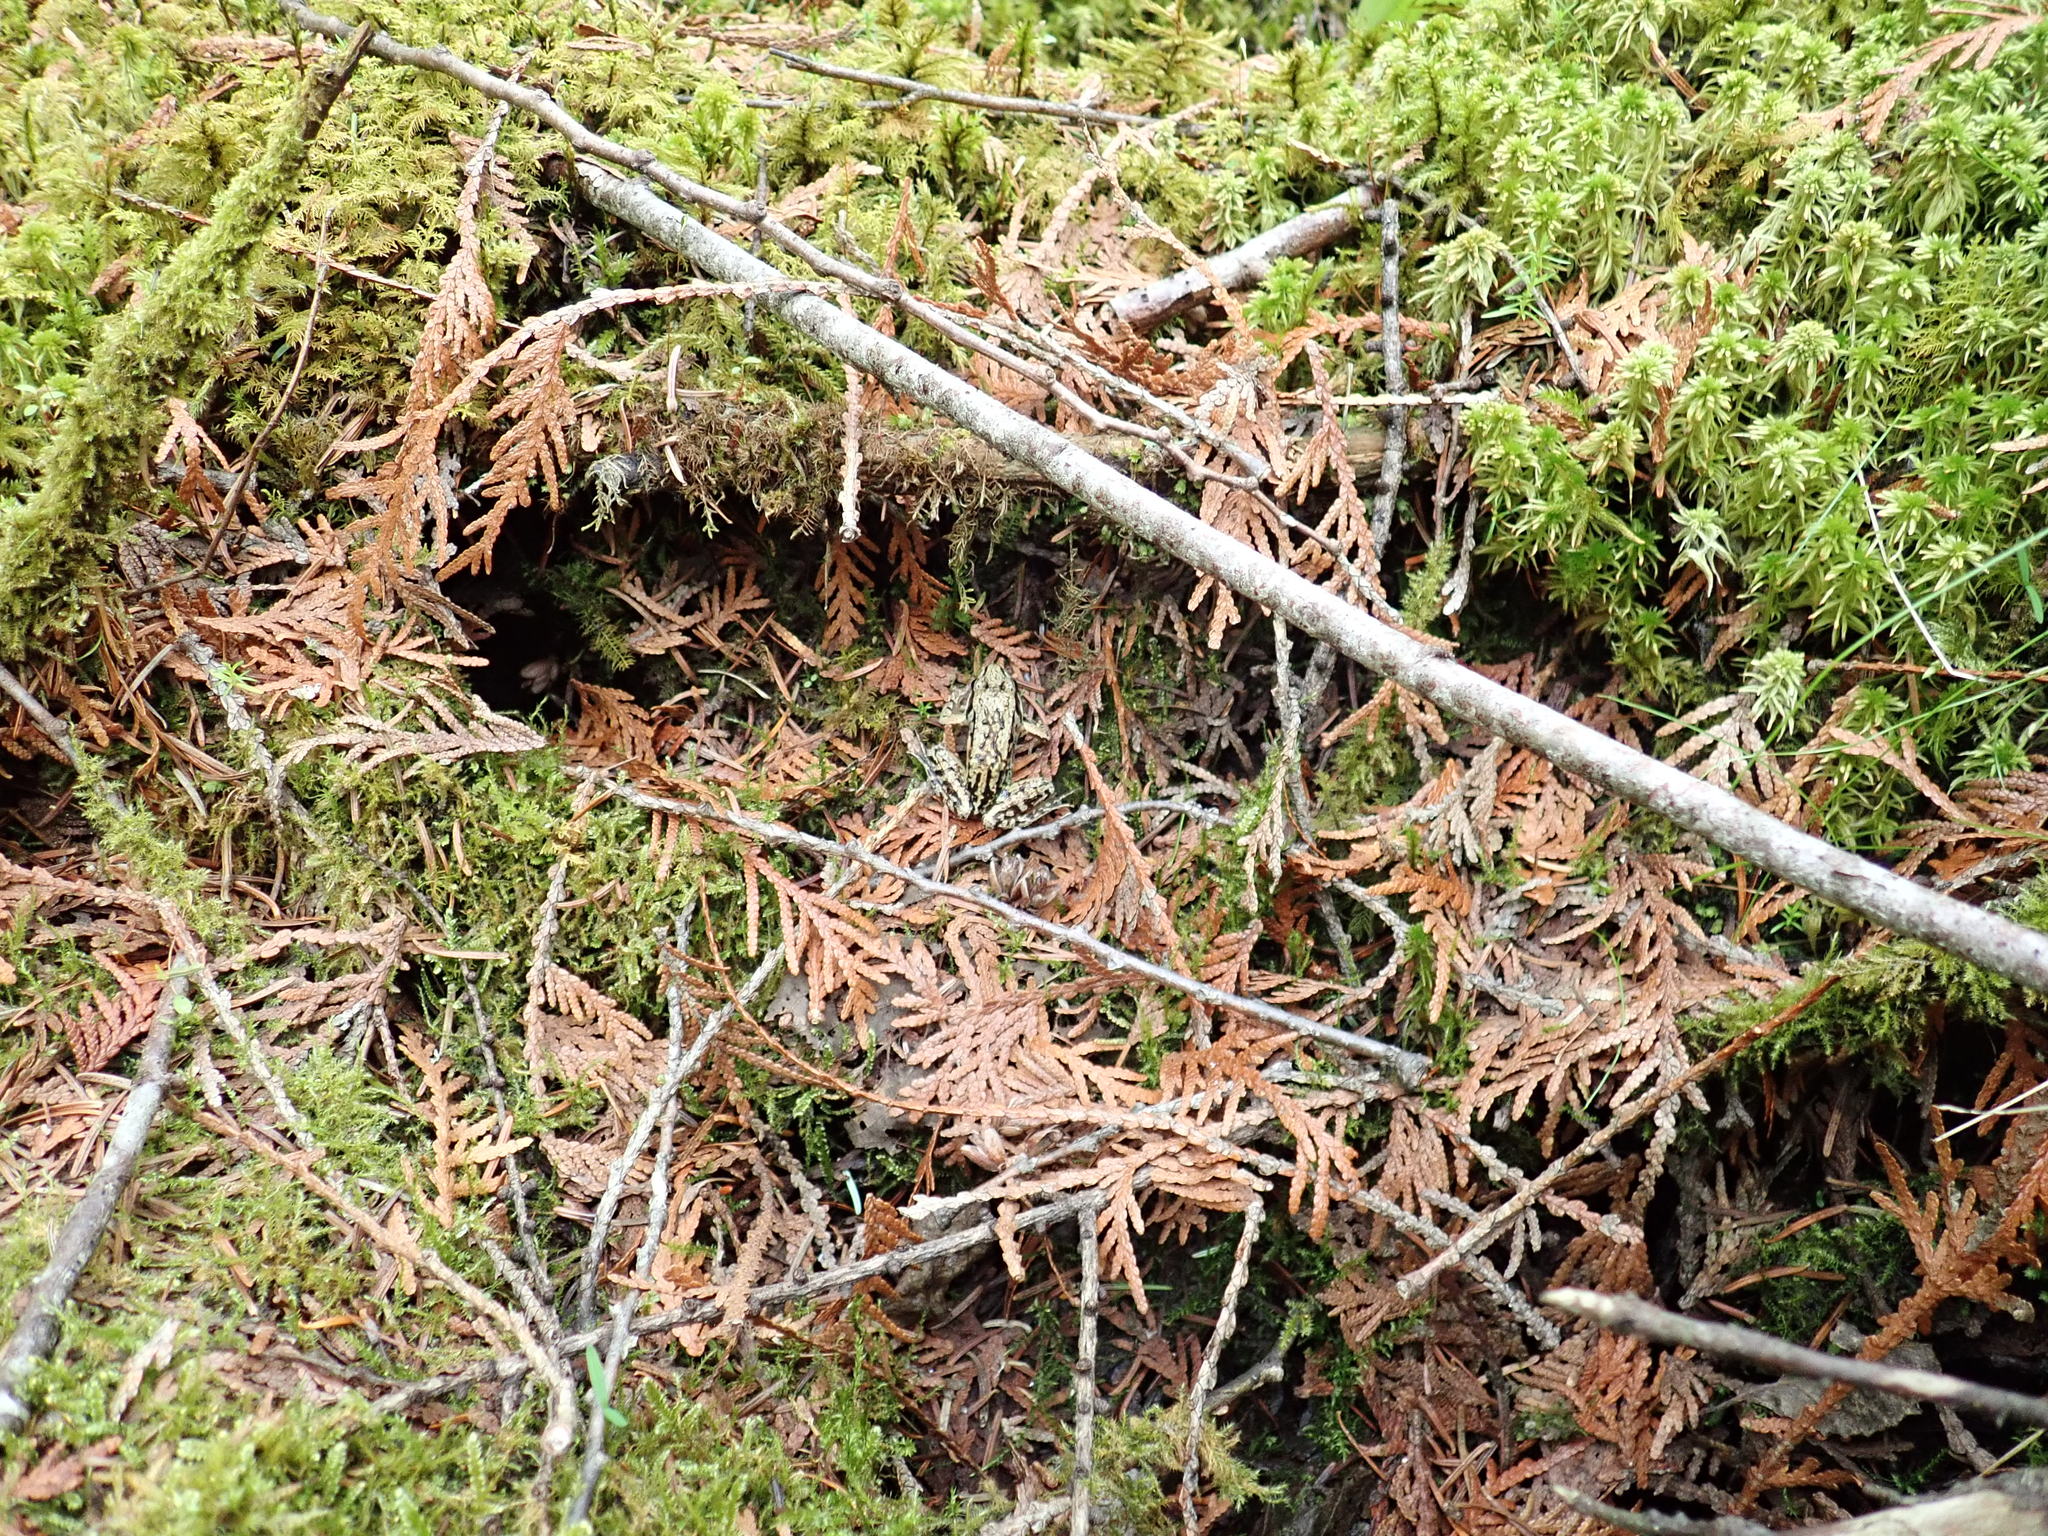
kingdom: Animalia
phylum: Chordata
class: Amphibia
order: Anura
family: Ranidae
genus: Lithobates
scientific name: Lithobates sylvaticus
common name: Wood frog
